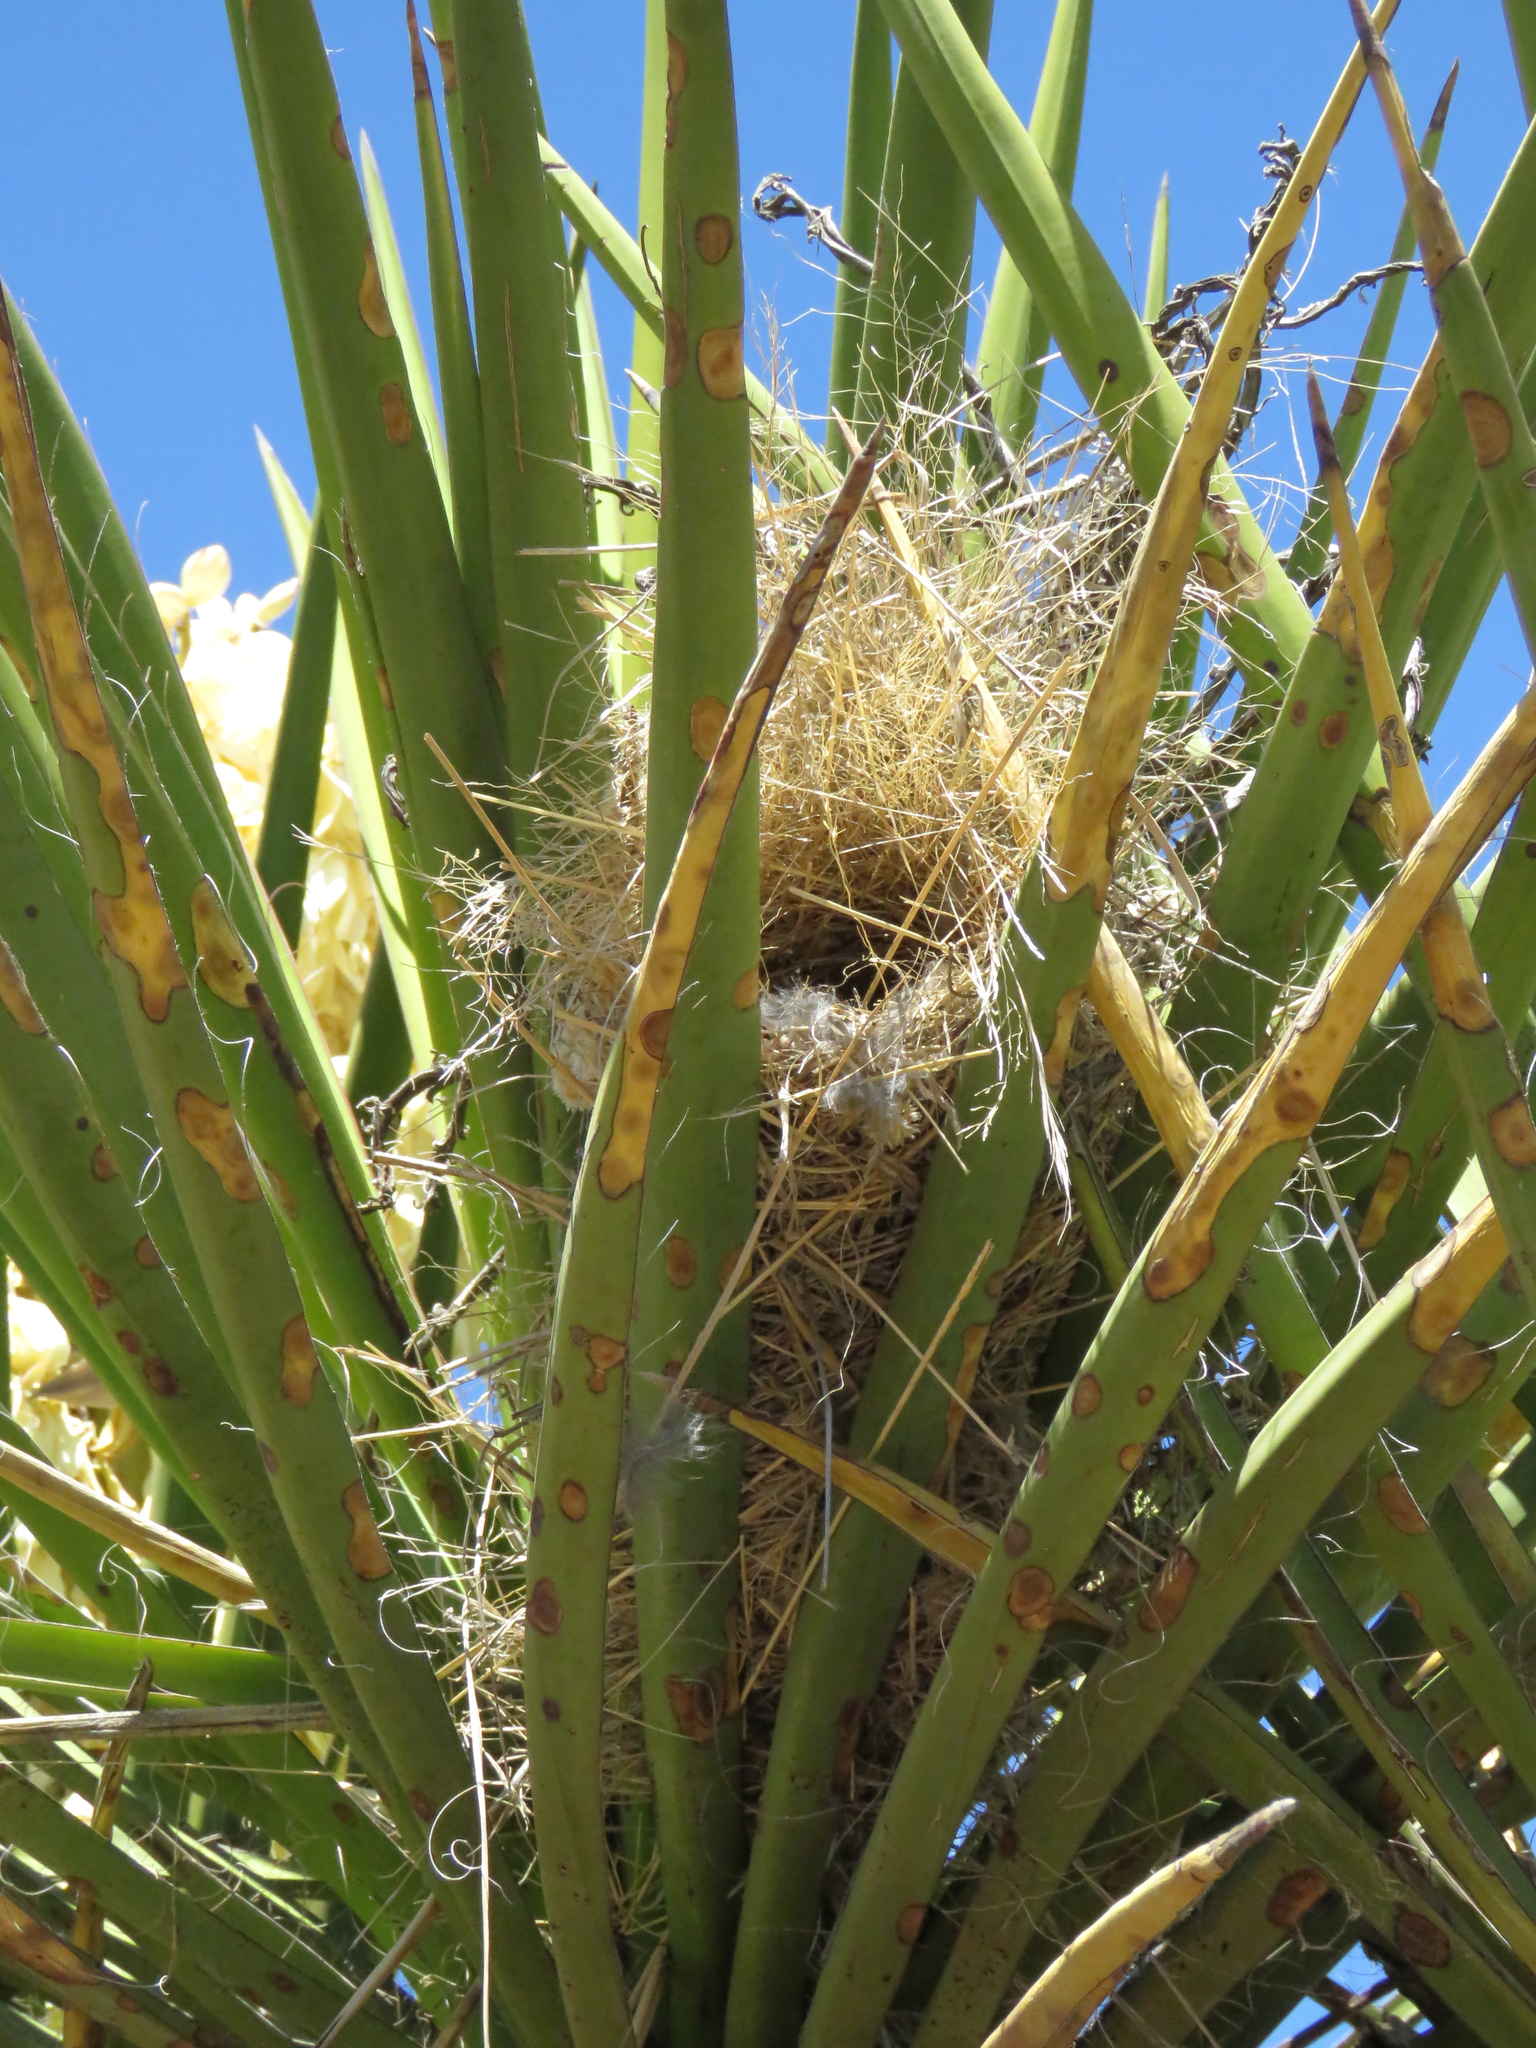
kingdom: Animalia
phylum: Chordata
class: Aves
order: Passeriformes
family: Troglodytidae
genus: Campylorhynchus
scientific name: Campylorhynchus brunneicapillus
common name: Cactus wren
